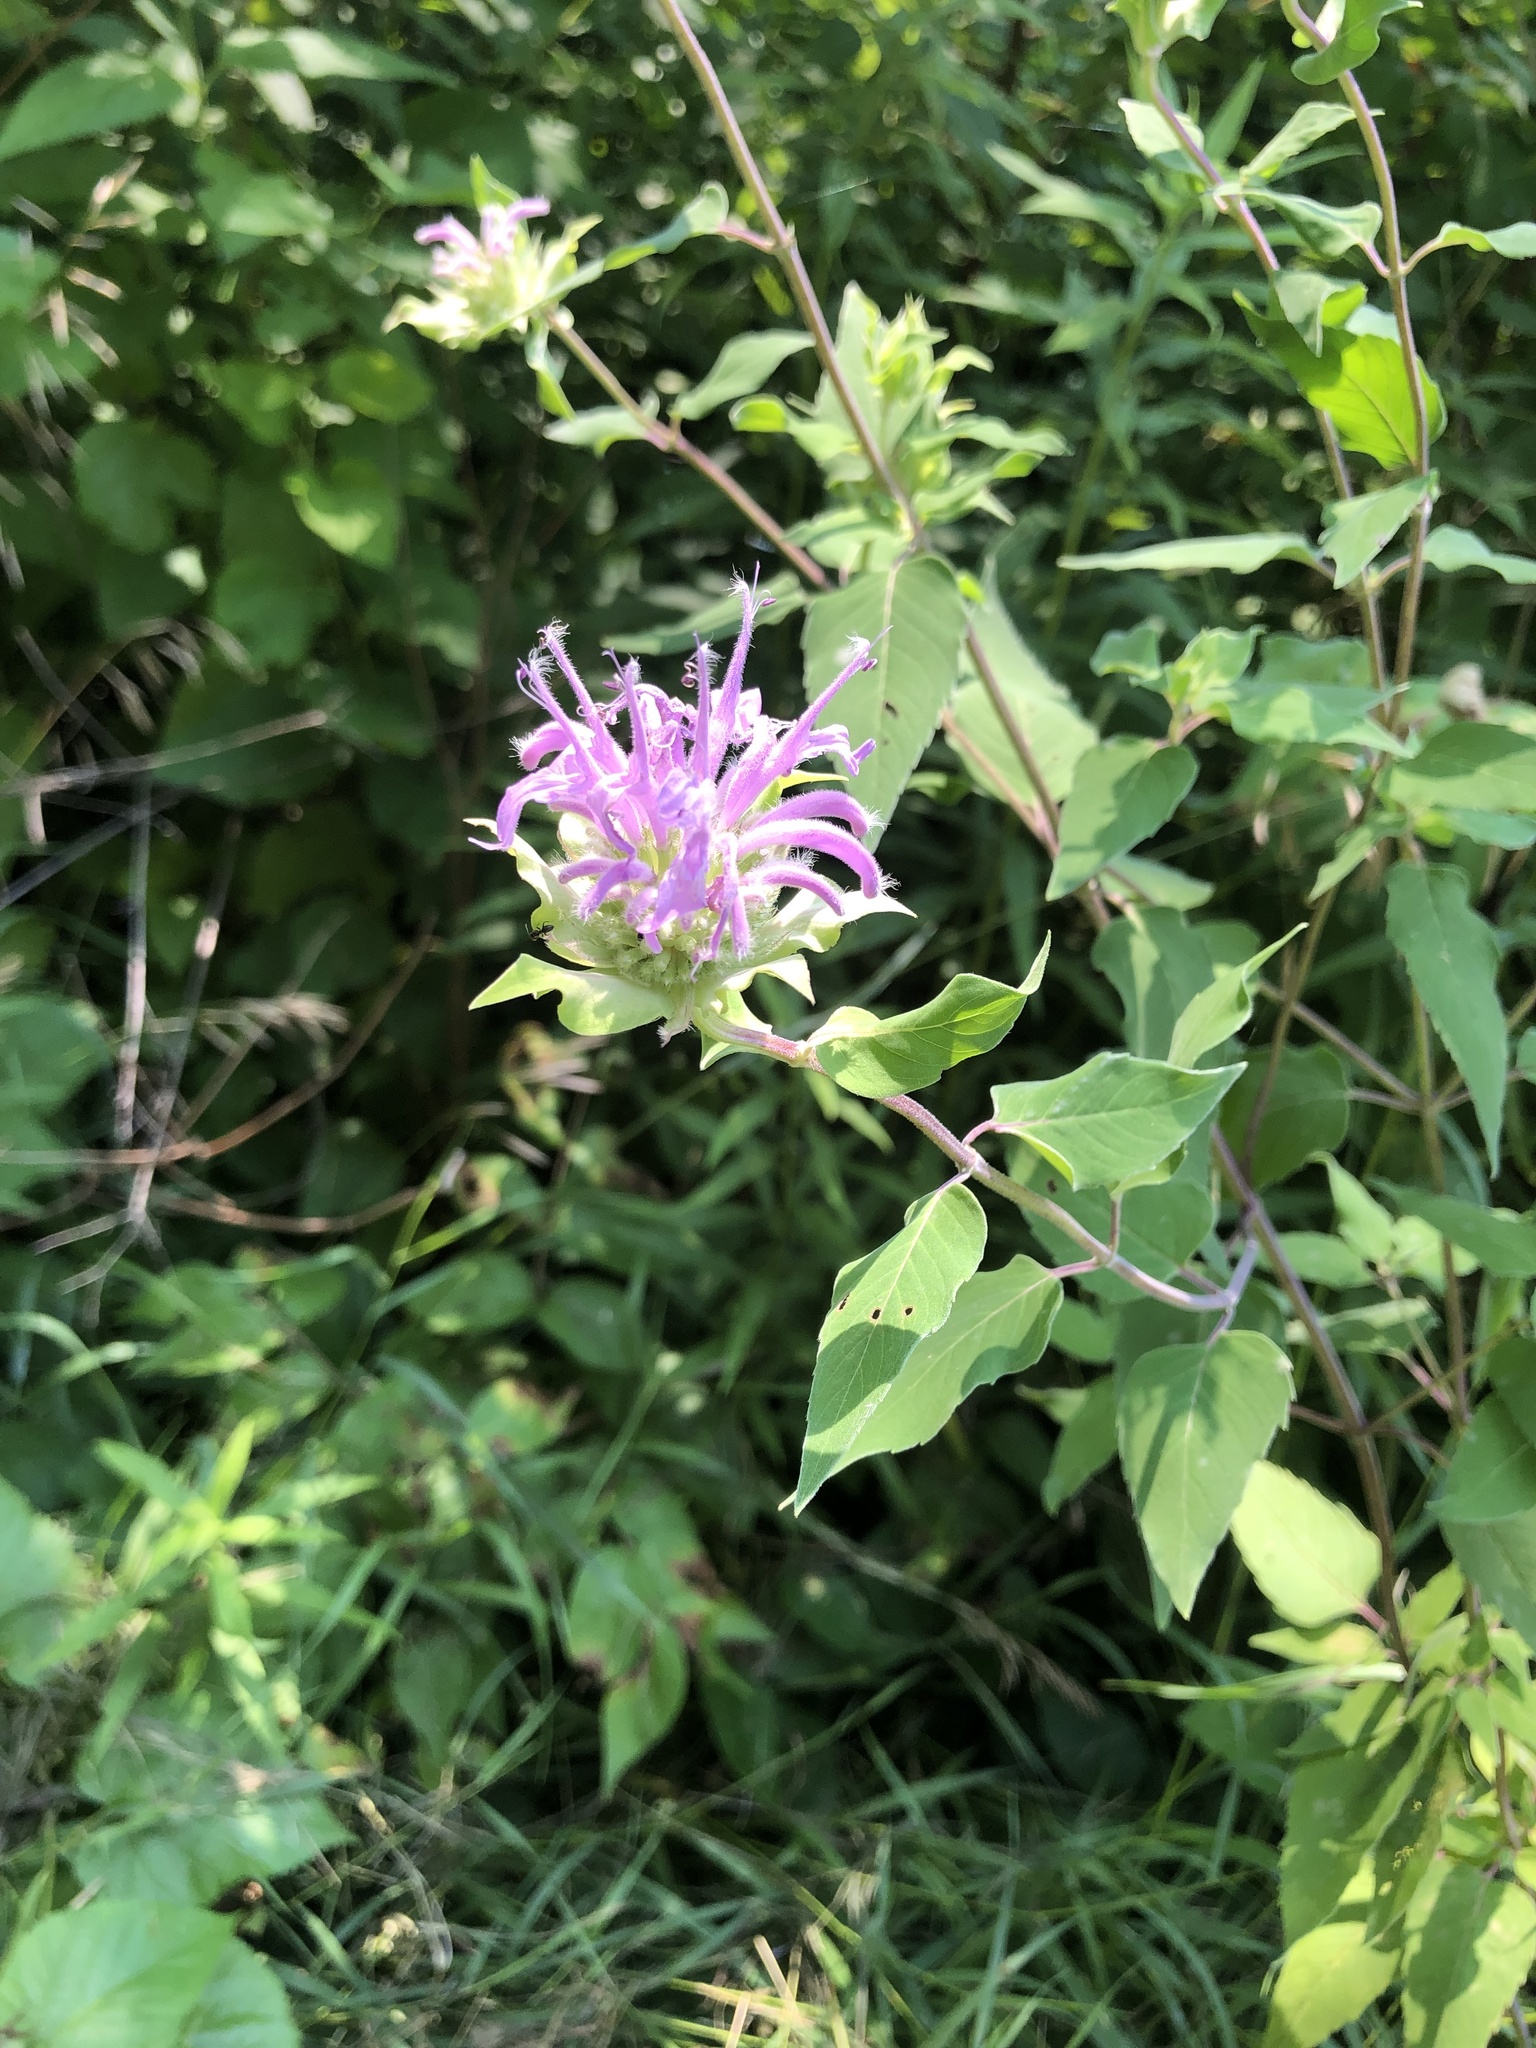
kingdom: Plantae
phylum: Tracheophyta
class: Magnoliopsida
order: Lamiales
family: Lamiaceae
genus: Monarda
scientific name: Monarda fistulosa
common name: Purple beebalm
